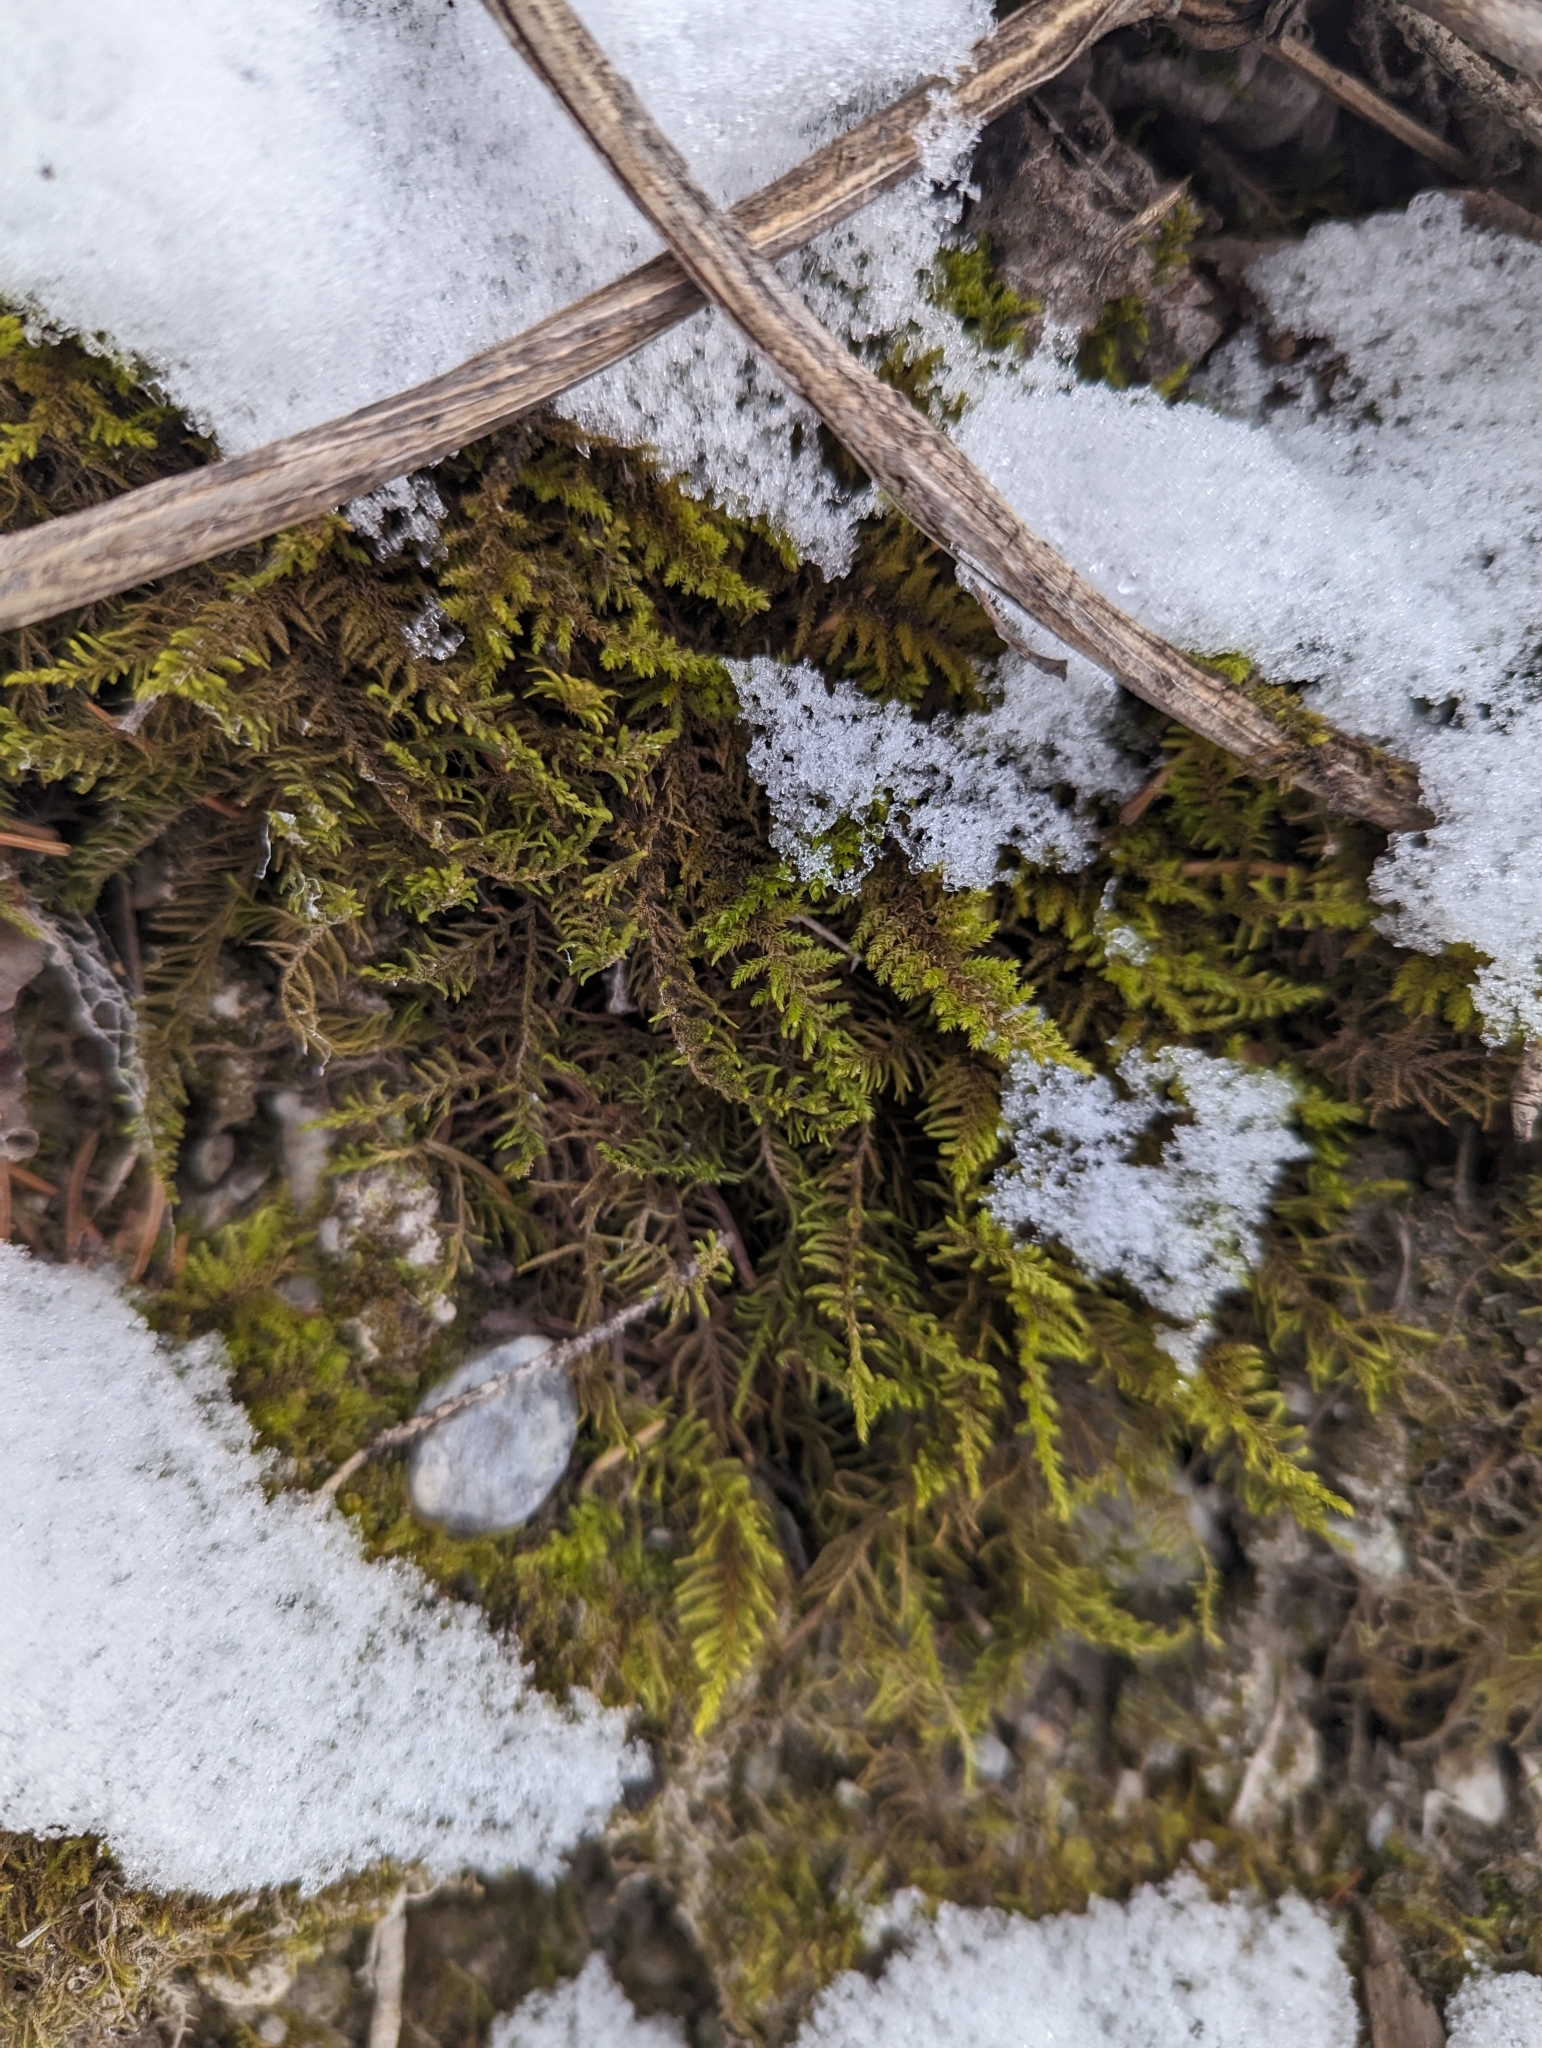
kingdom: Plantae
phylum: Bryophyta
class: Bryopsida
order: Hypnales
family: Thuidiaceae
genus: Abietinella
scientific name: Abietinella abietina
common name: Wiry fern moss
